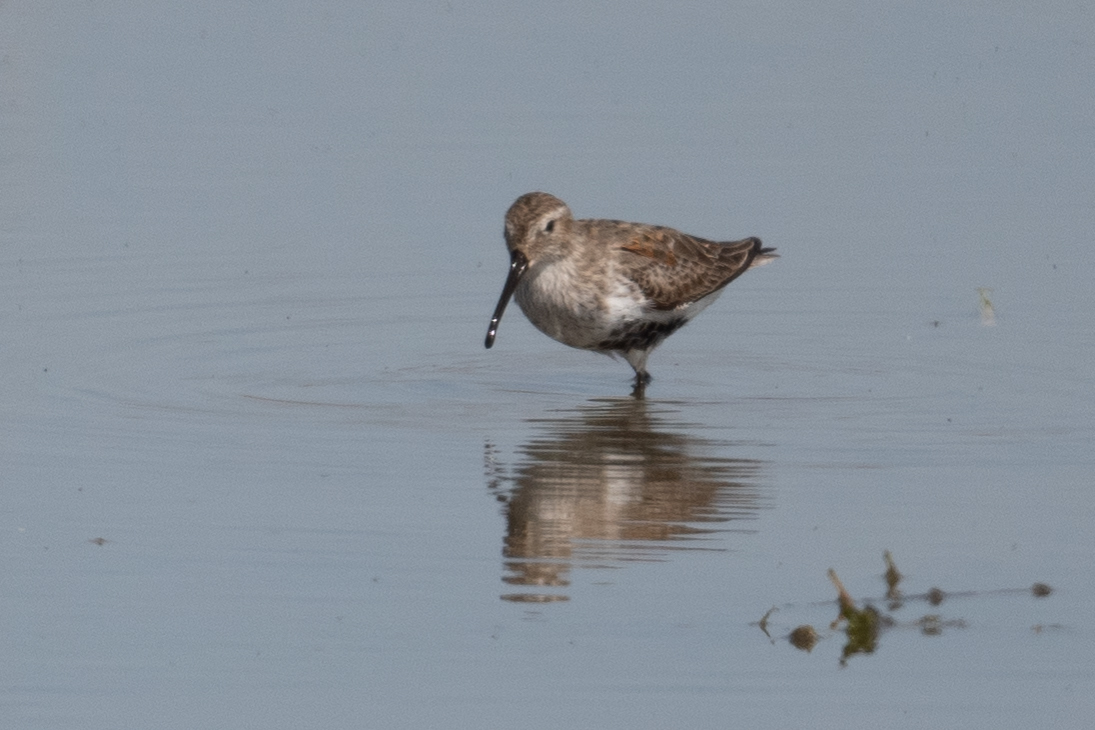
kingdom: Animalia
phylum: Chordata
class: Aves
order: Charadriiformes
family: Scolopacidae
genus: Calidris
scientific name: Calidris alpina
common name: Dunlin
